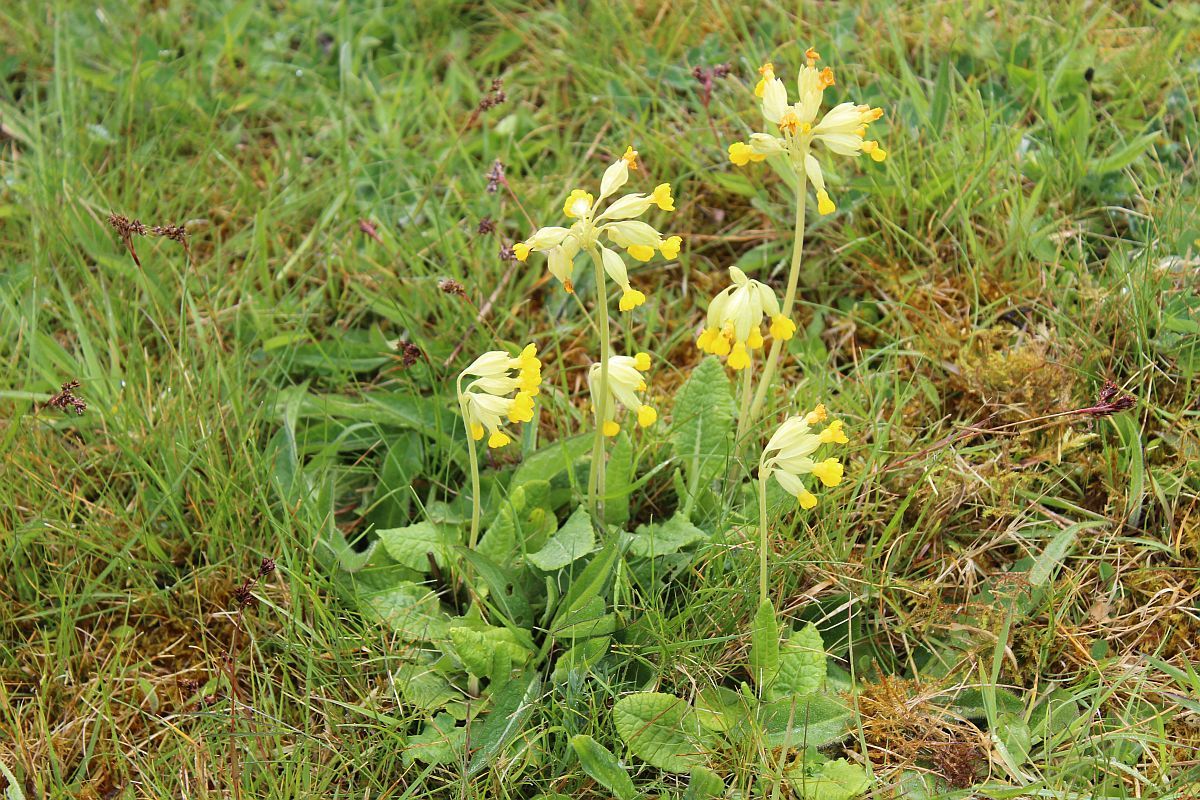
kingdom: Plantae
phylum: Tracheophyta
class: Magnoliopsida
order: Ericales
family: Primulaceae
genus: Primula
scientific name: Primula veris
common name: Cowslip
